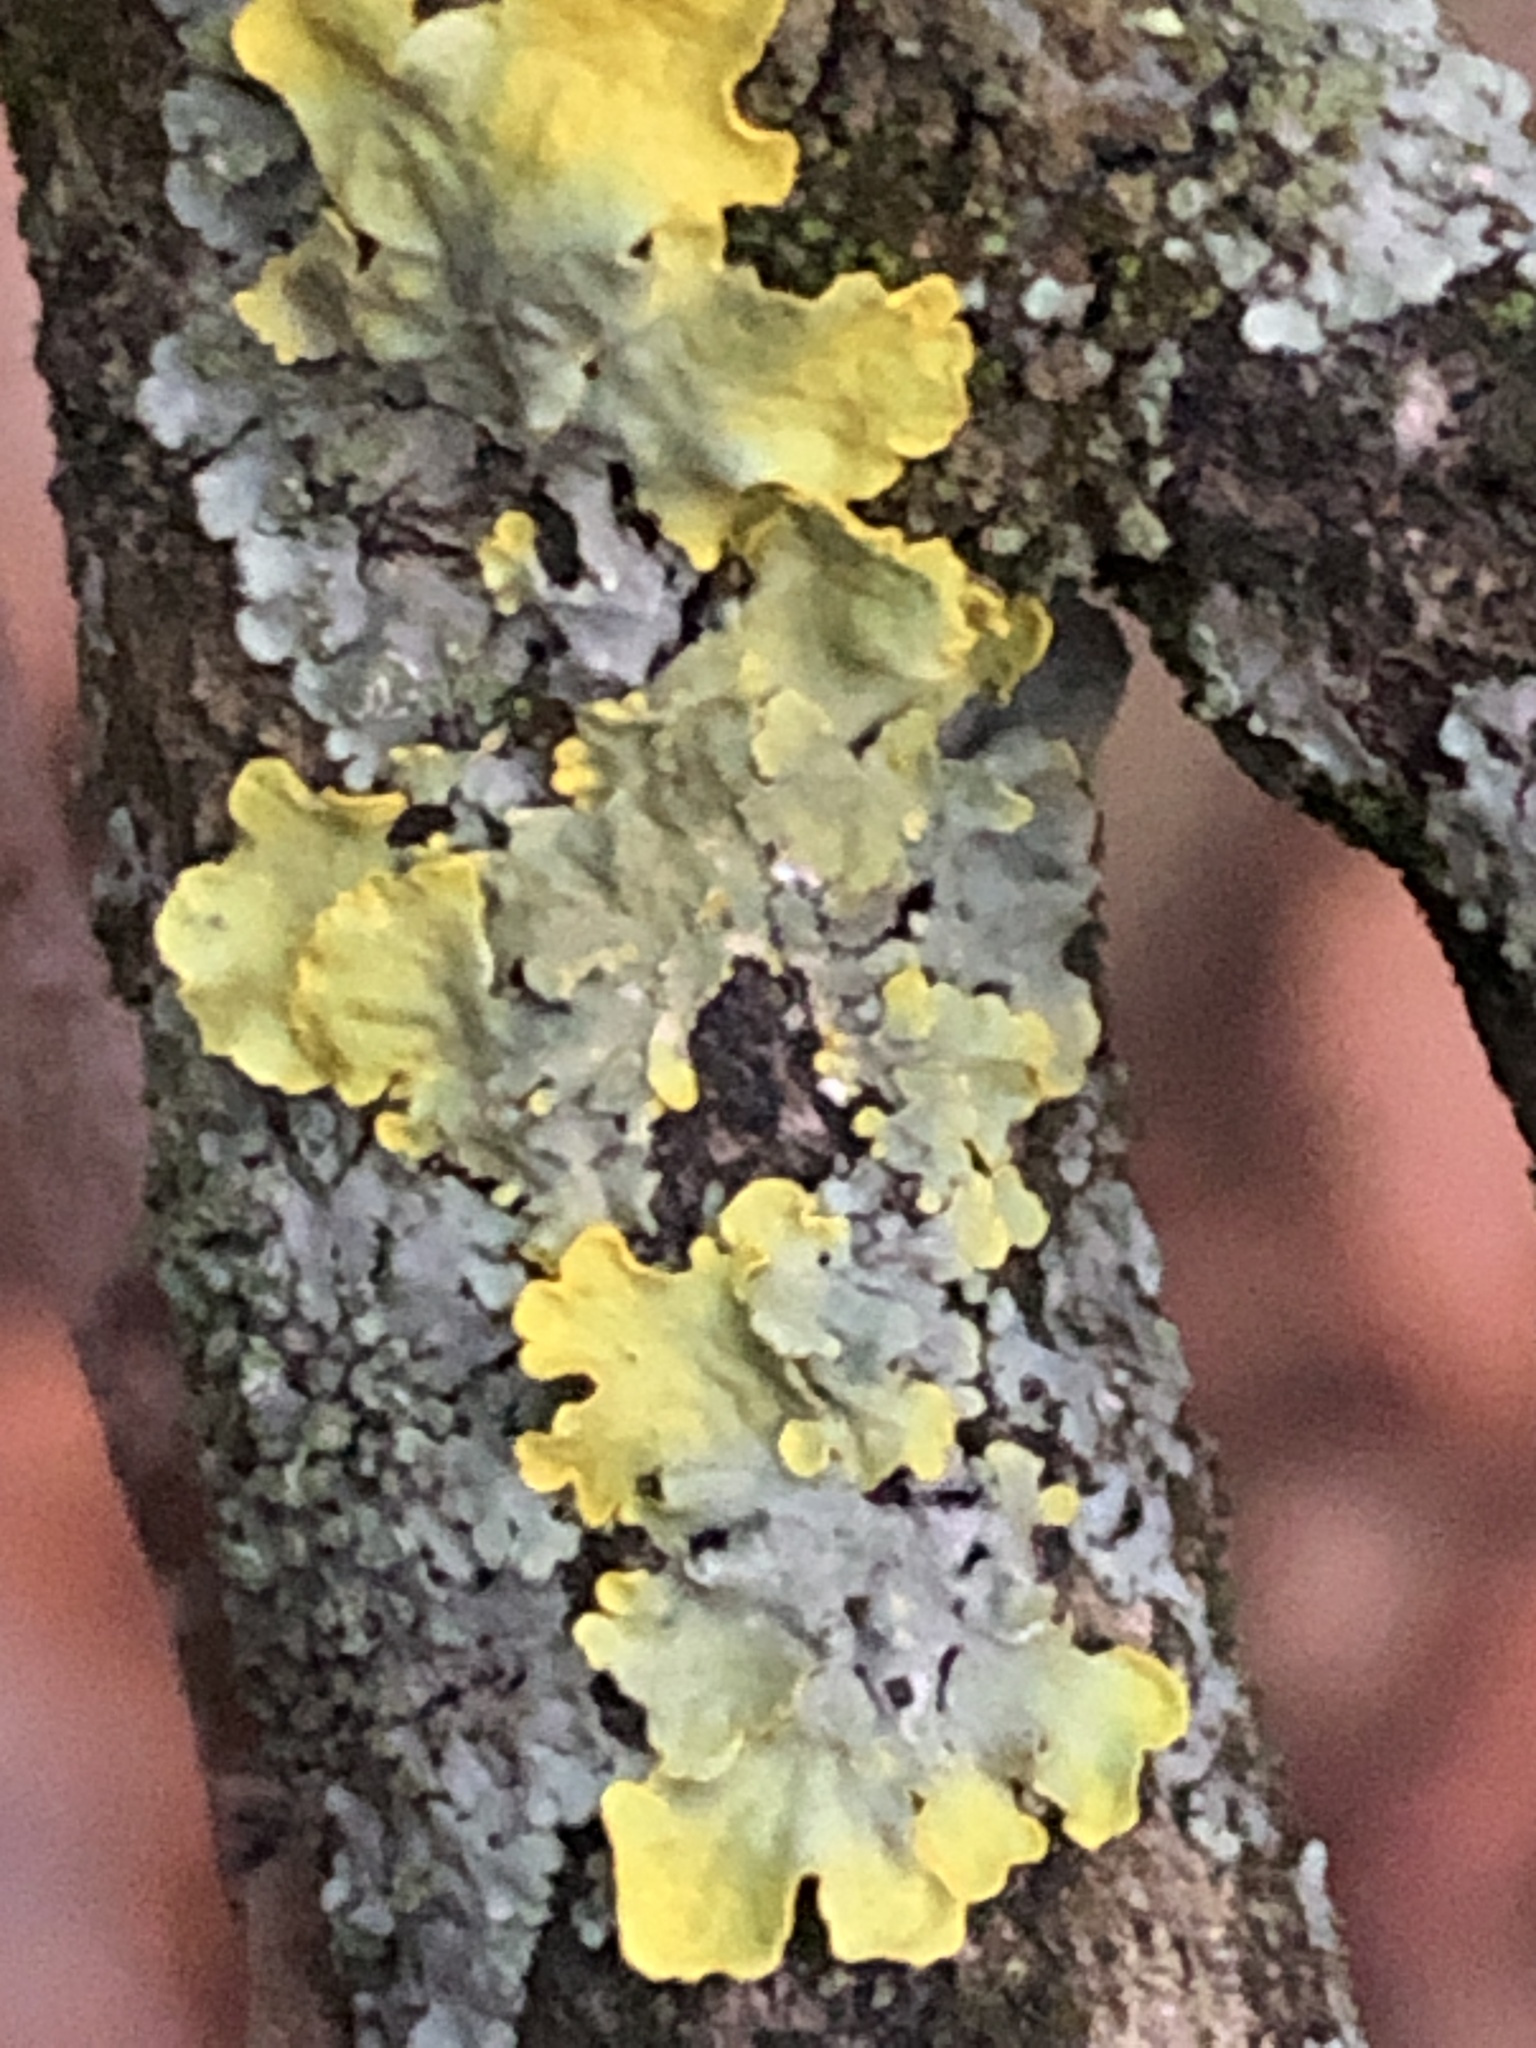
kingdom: Fungi
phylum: Ascomycota
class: Lecanoromycetes
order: Teloschistales
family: Teloschistaceae
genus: Xanthoria
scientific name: Xanthoria parietina
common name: Common orange lichen
